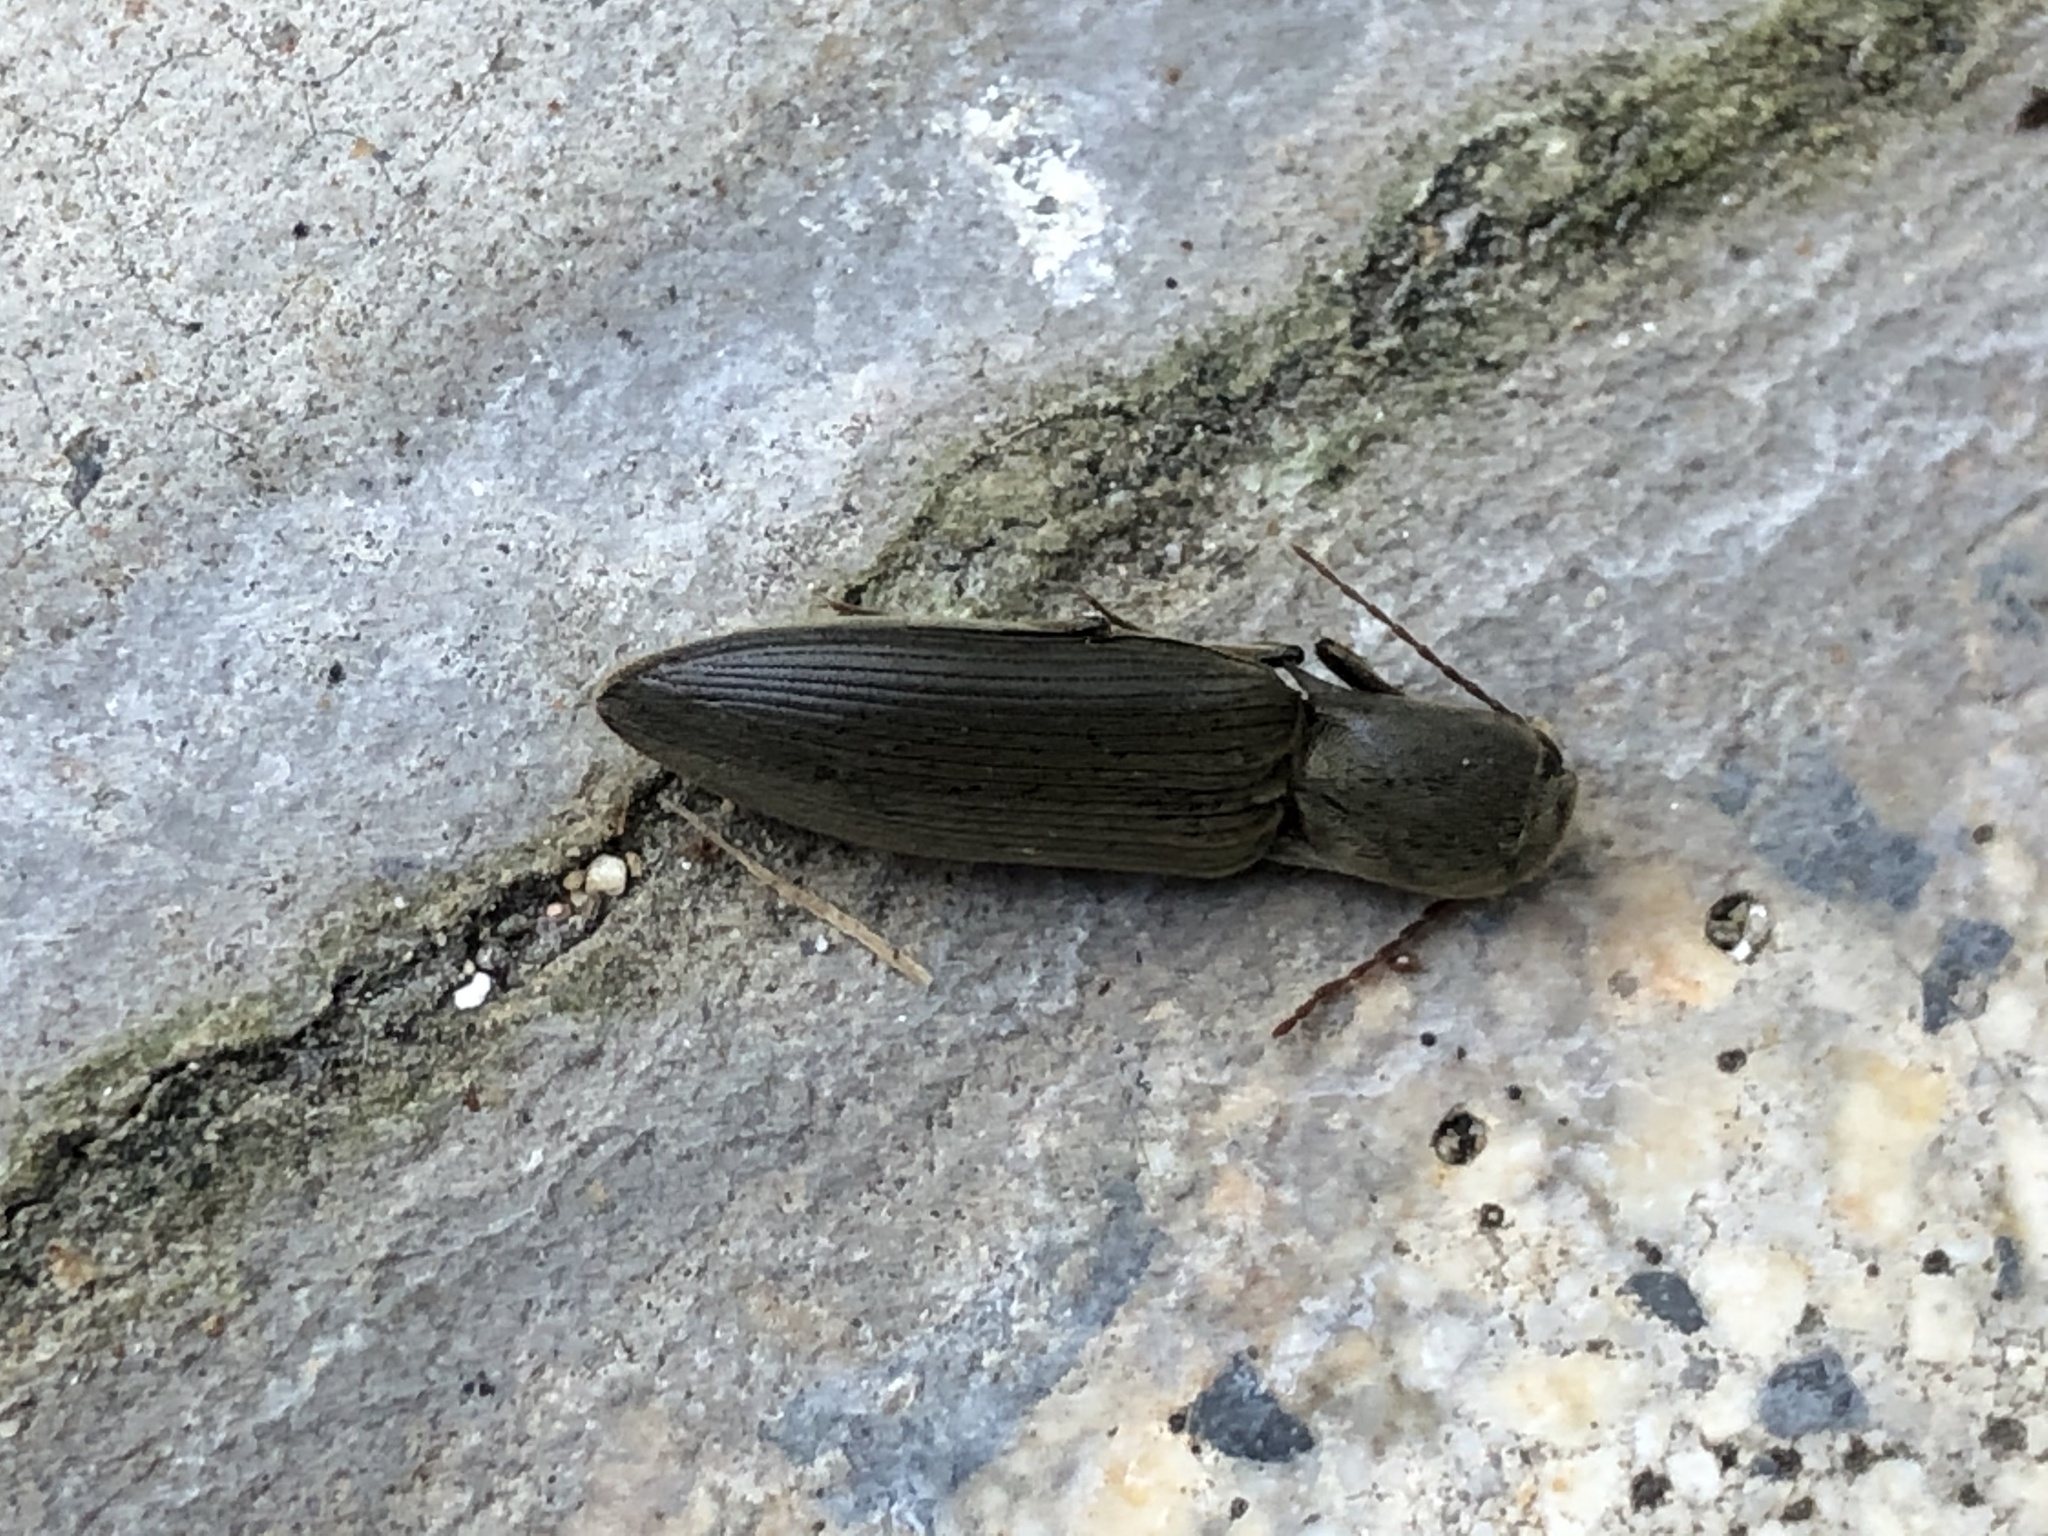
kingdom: Animalia
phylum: Arthropoda
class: Insecta
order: Coleoptera
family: Elateridae
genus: Agriotes
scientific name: Agriotes pilosellus
